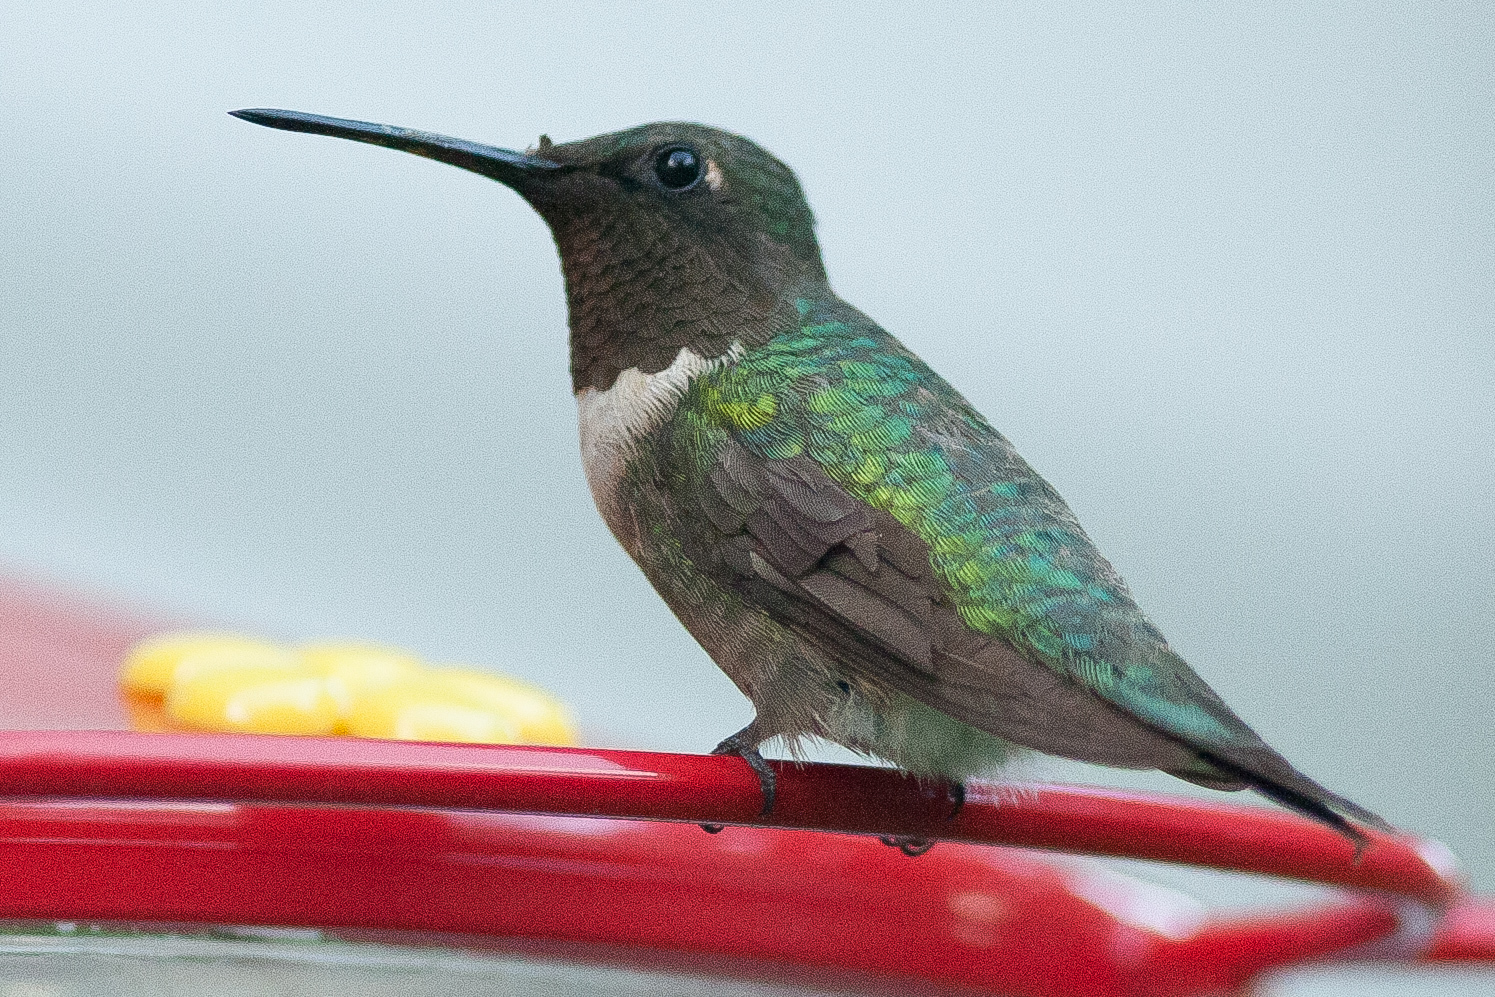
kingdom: Animalia
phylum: Chordata
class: Aves
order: Apodiformes
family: Trochilidae
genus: Archilochus
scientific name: Archilochus alexandri
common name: Black-chinned hummingbird
